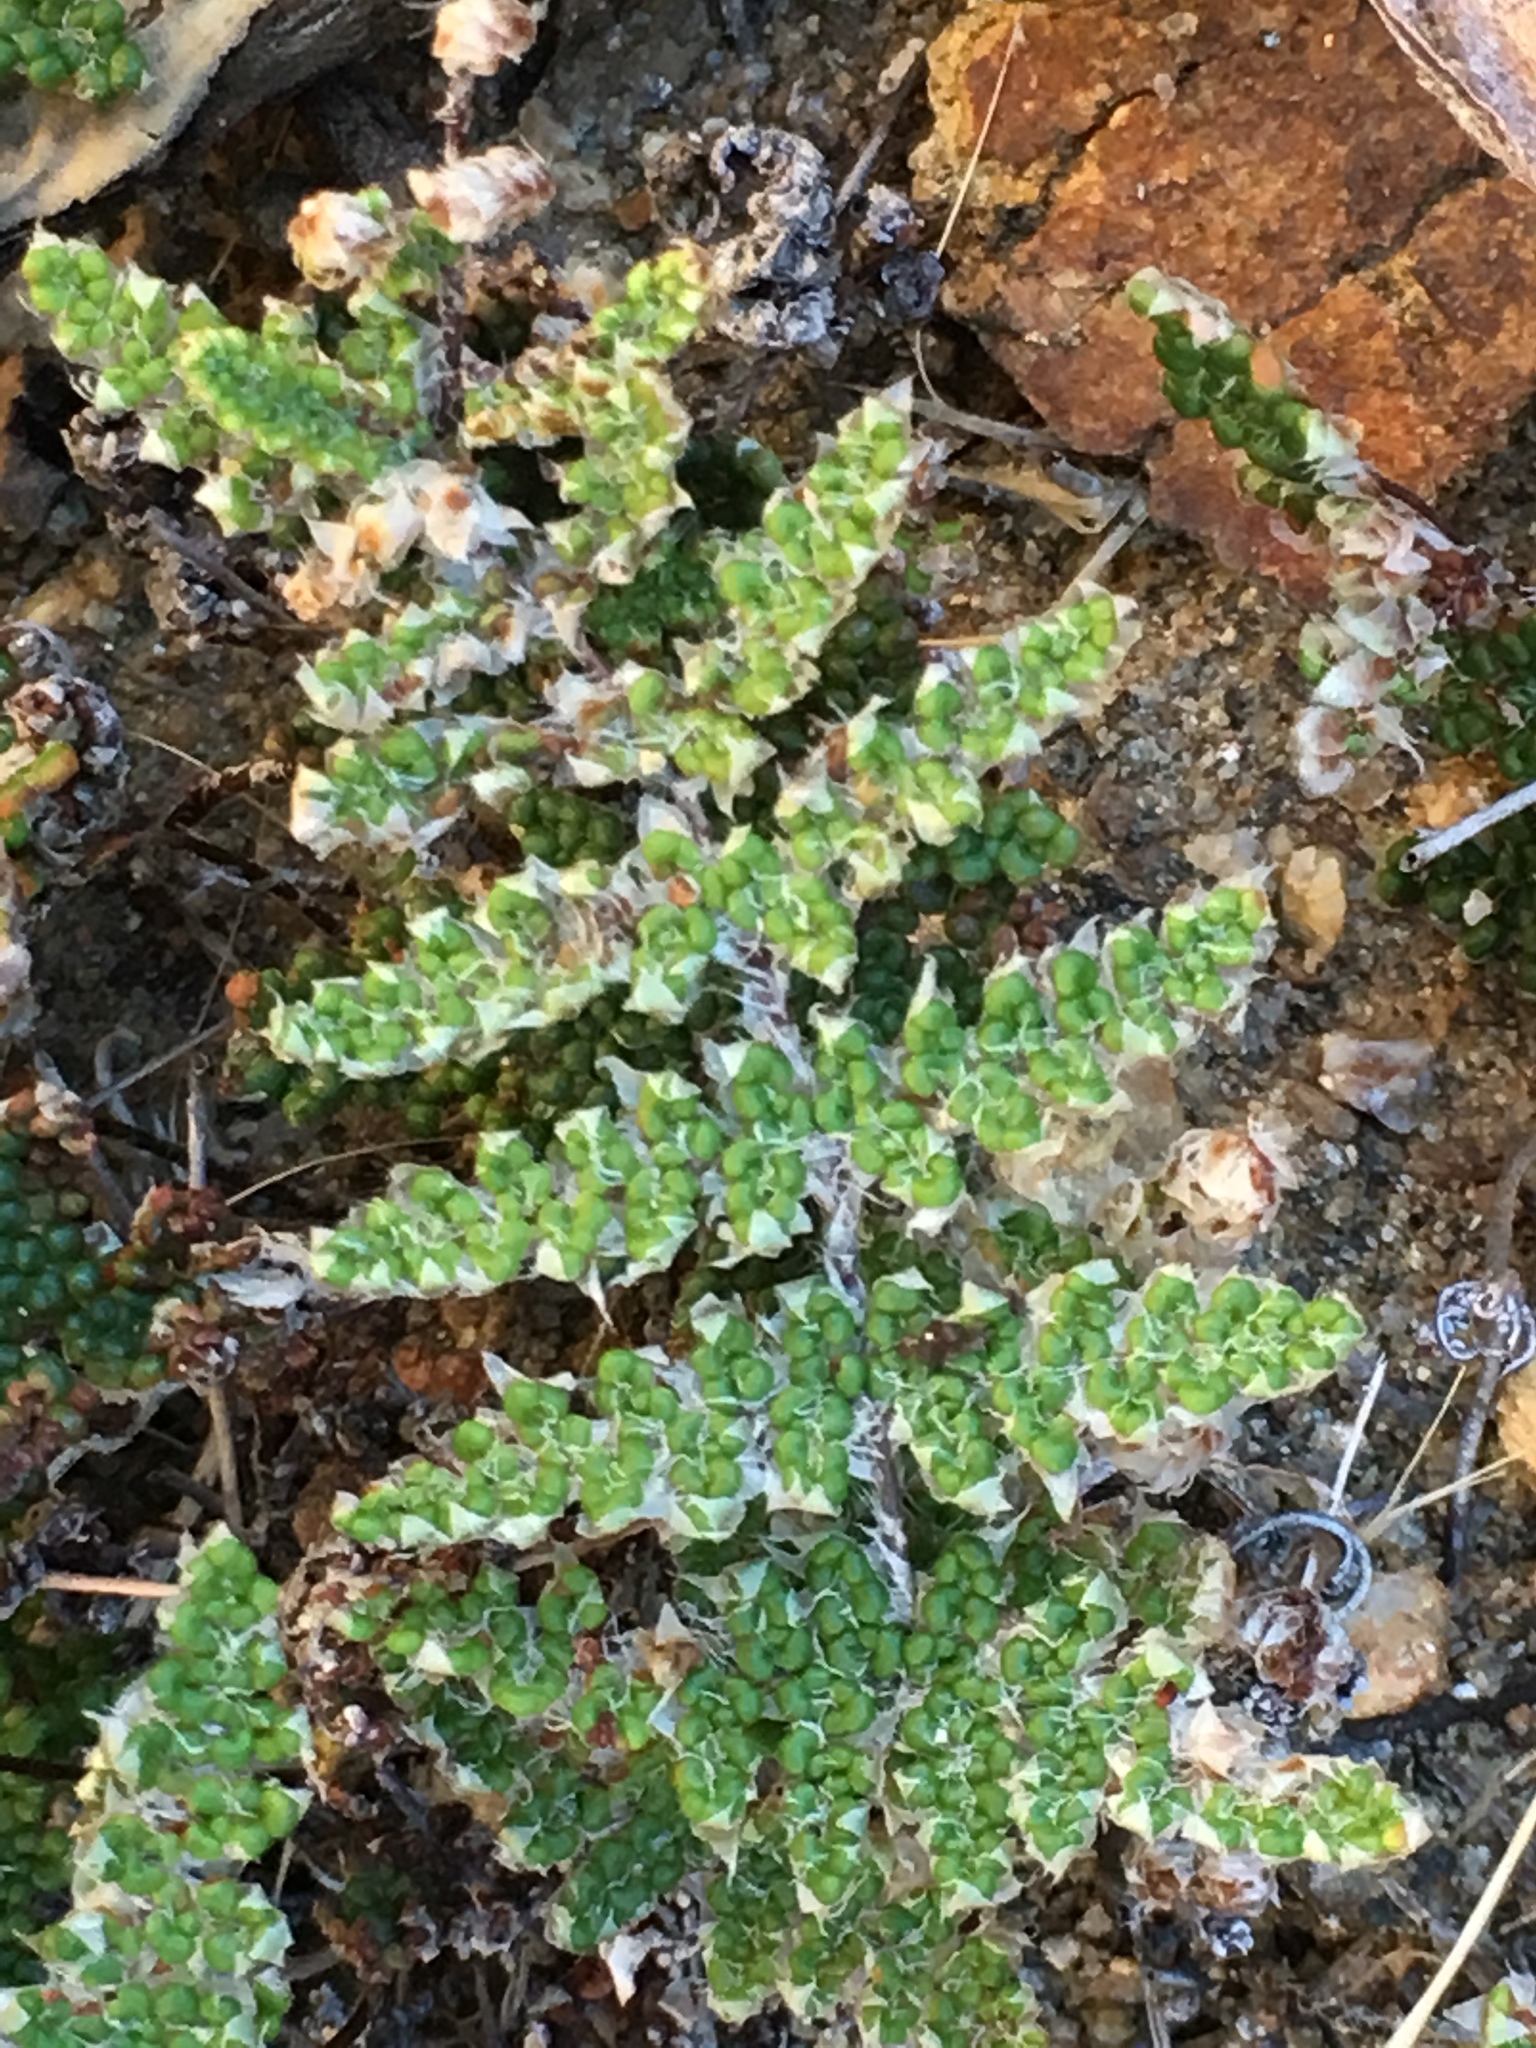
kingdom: Plantae
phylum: Tracheophyta
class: Polypodiopsida
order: Polypodiales
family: Pteridaceae
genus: Myriopteris
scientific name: Myriopteris covillei
